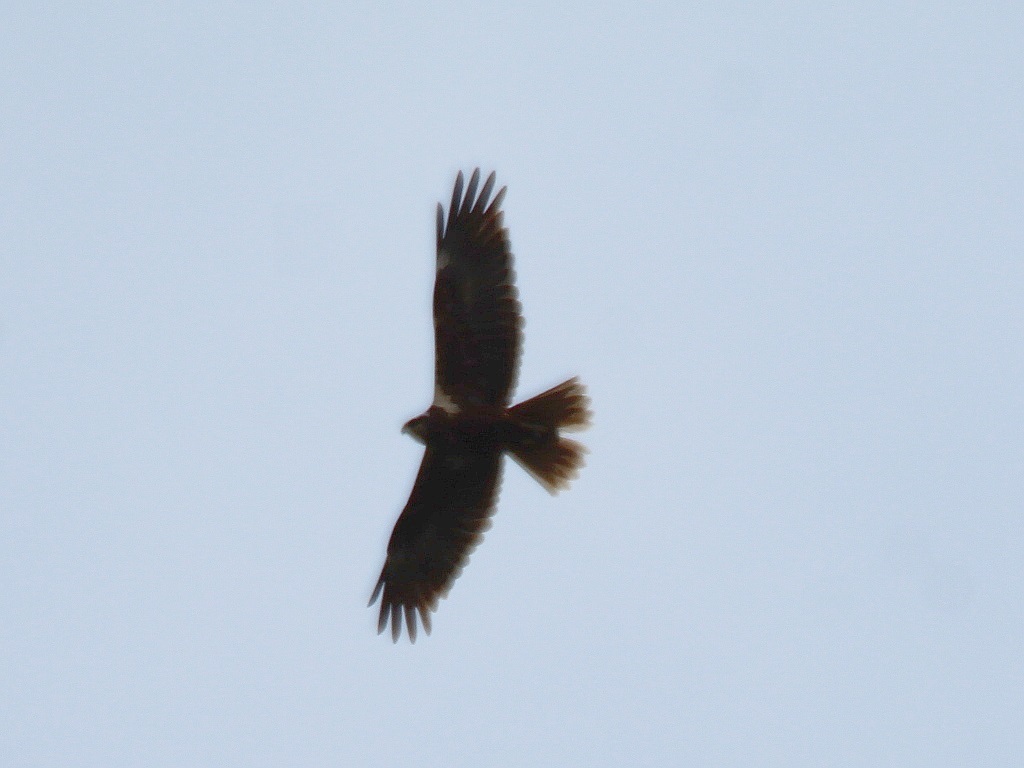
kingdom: Animalia
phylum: Chordata
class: Aves
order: Accipitriformes
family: Accipitridae
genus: Circus
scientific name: Circus aeruginosus
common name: Western marsh harrier
